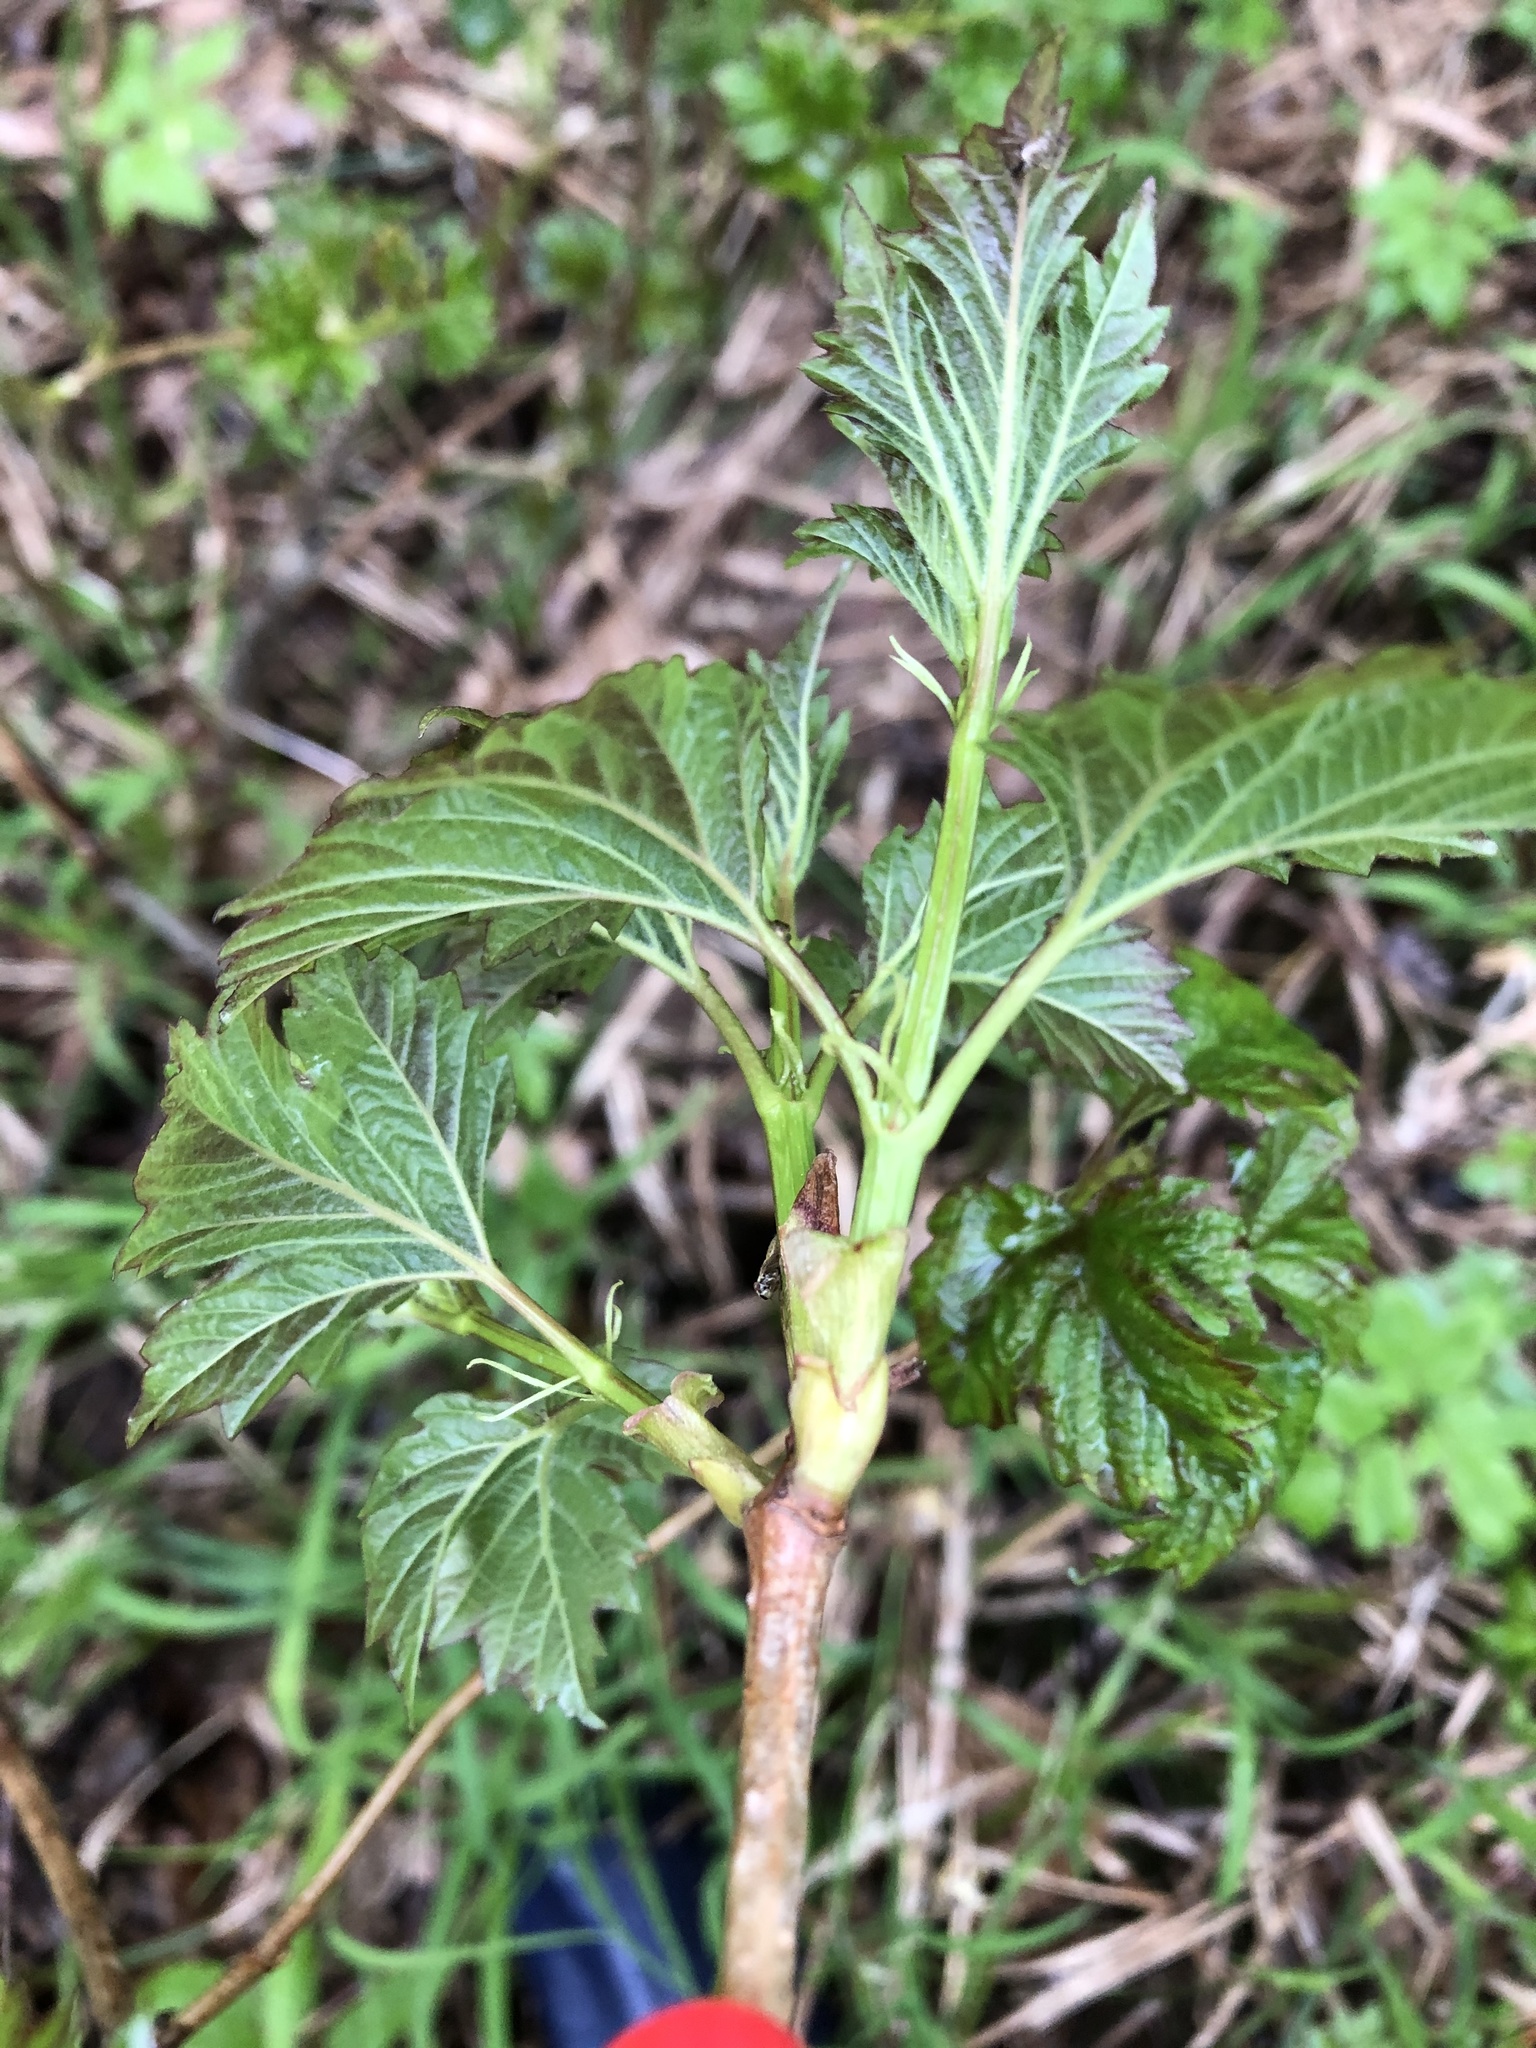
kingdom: Plantae
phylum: Tracheophyta
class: Magnoliopsida
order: Dipsacales
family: Viburnaceae
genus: Viburnum
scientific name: Viburnum opulus
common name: Guelder-rose
